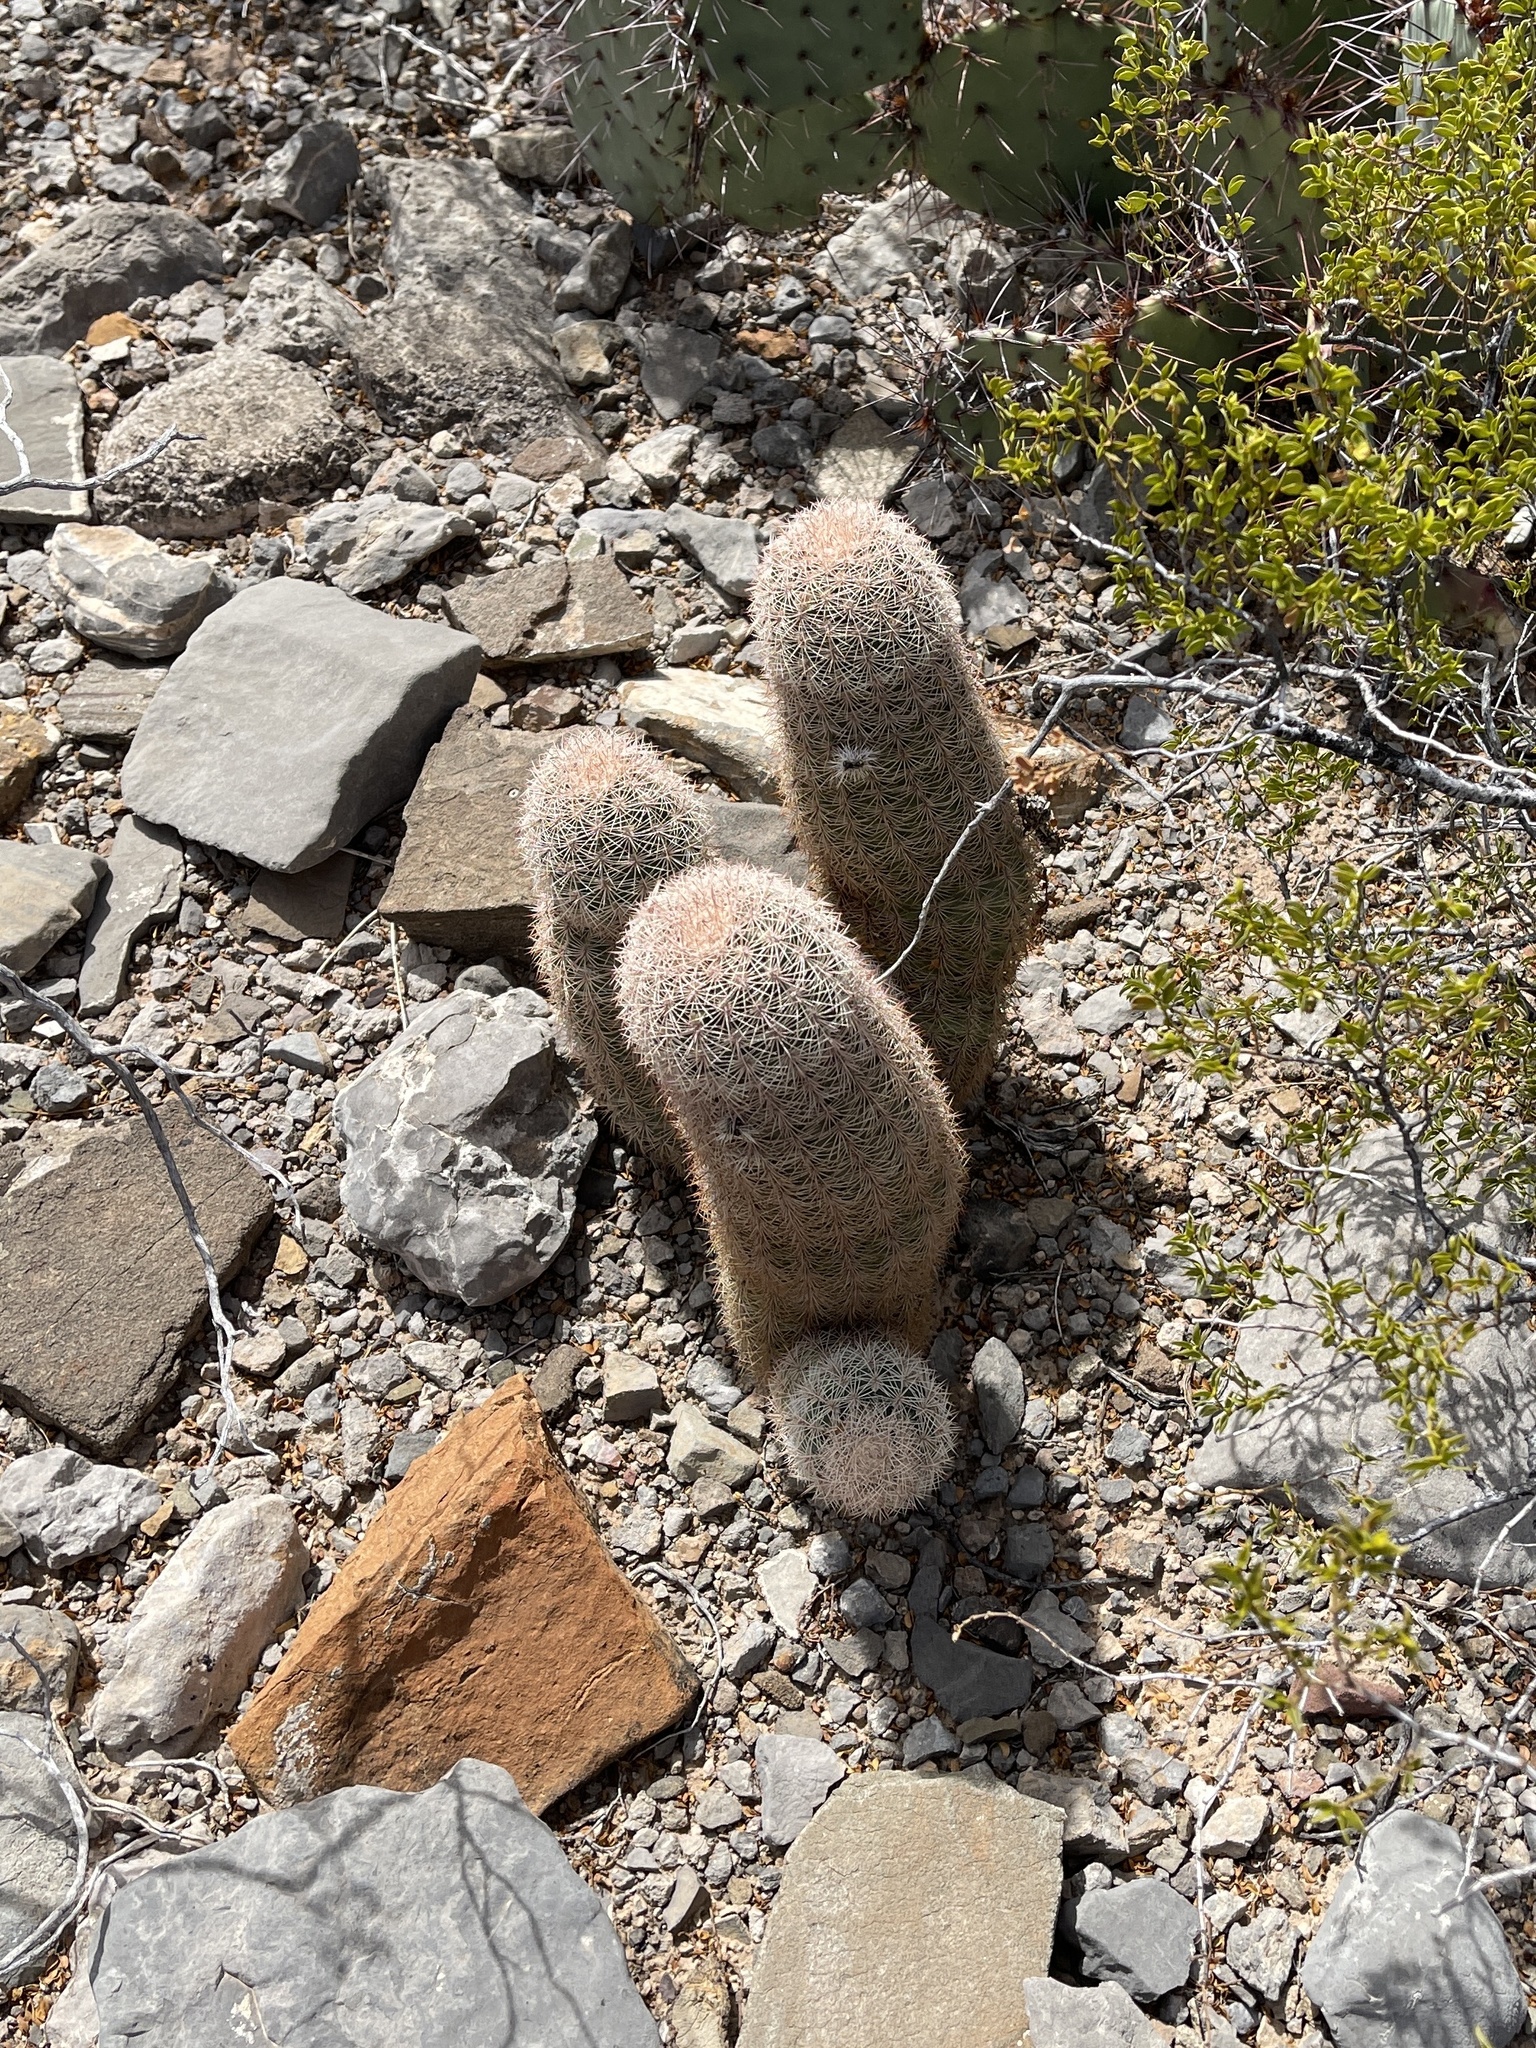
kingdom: Plantae
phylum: Tracheophyta
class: Magnoliopsida
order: Caryophyllales
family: Cactaceae
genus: Echinocereus
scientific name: Echinocereus dasyacanthus
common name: Spiny hedgehog cactus
